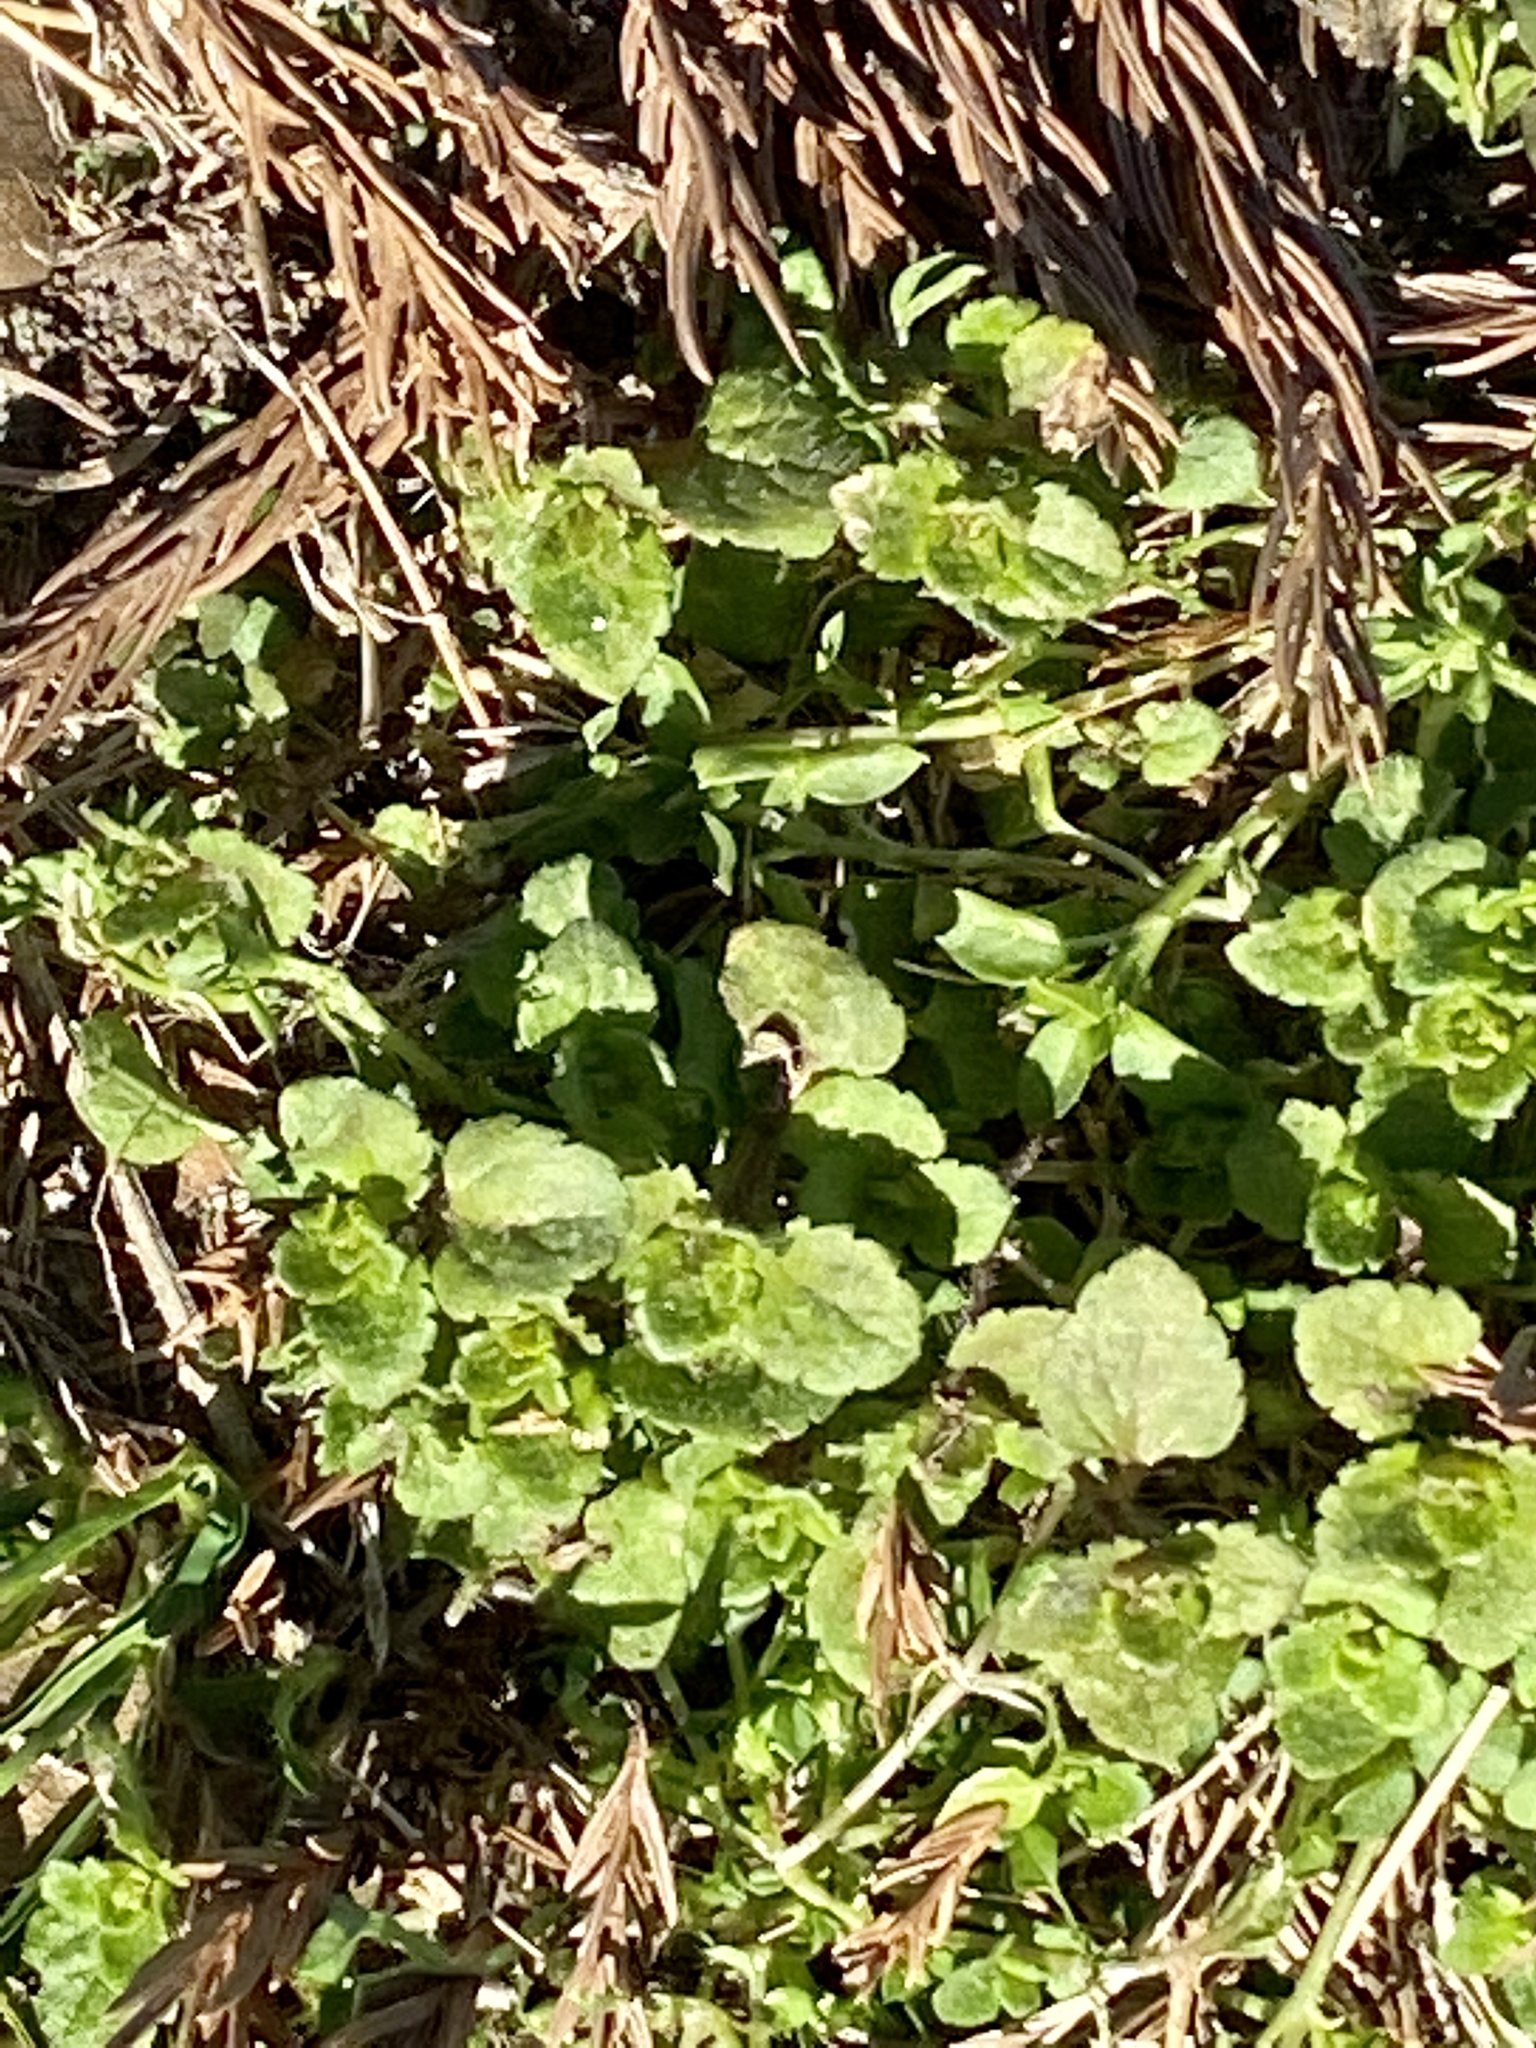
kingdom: Plantae
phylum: Tracheophyta
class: Magnoliopsida
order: Lamiales
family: Plantaginaceae
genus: Veronica
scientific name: Veronica arvensis
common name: Corn speedwell
